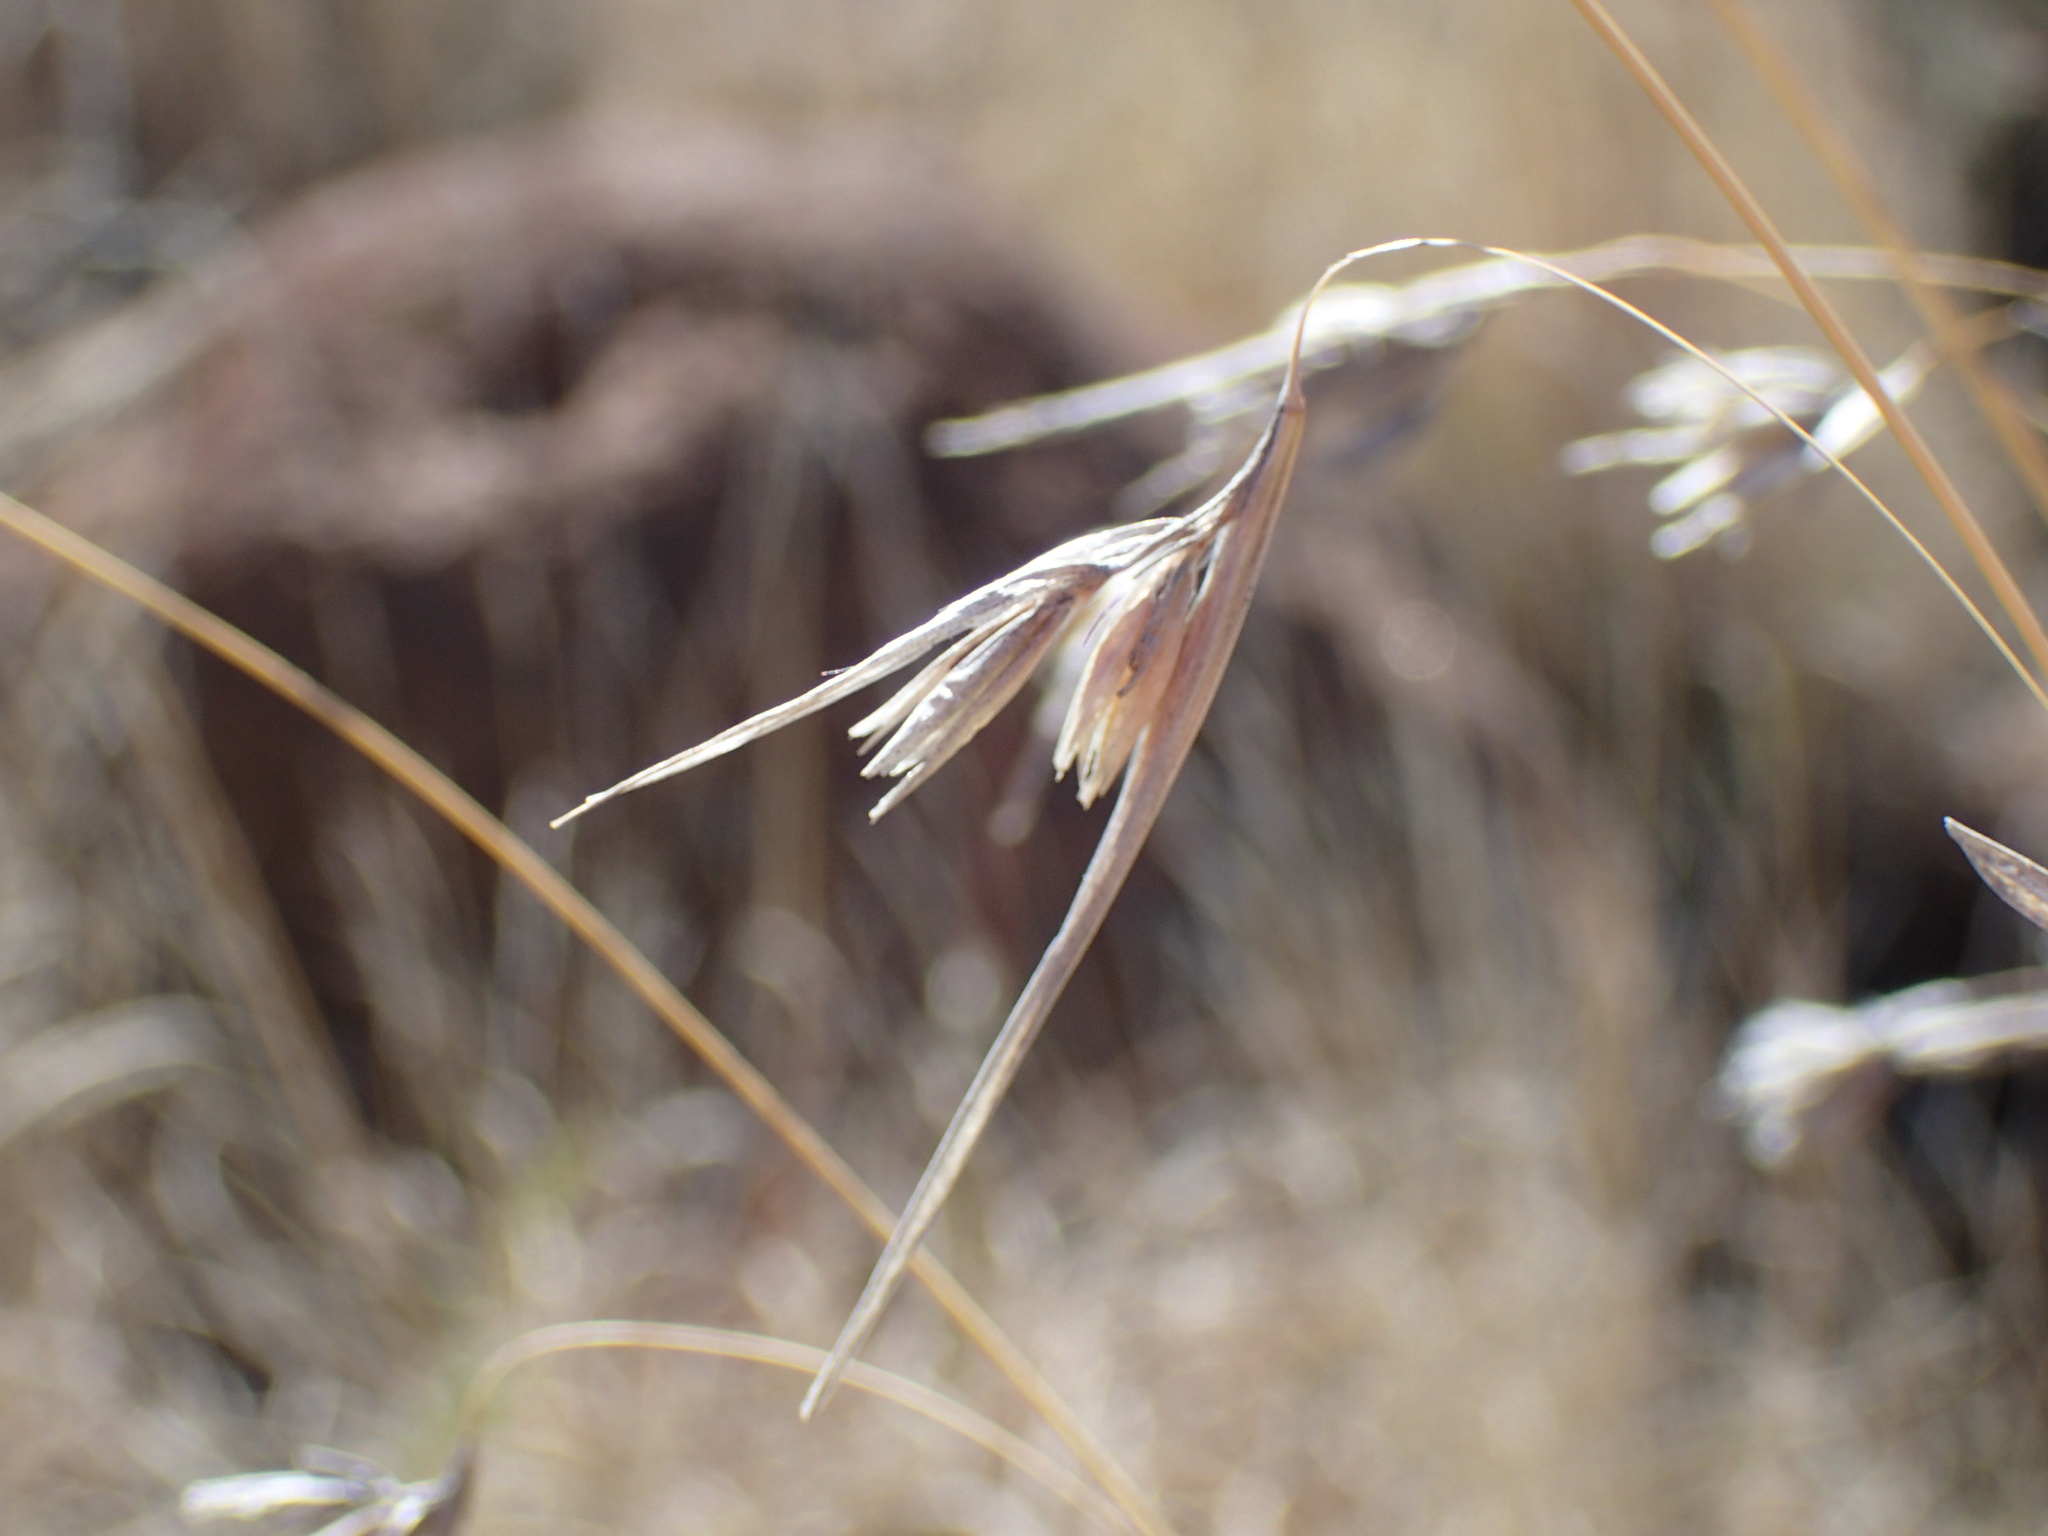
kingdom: Plantae
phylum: Tracheophyta
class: Liliopsida
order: Poales
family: Poaceae
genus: Themeda
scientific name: Themeda triandra
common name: Kangaroo grass
